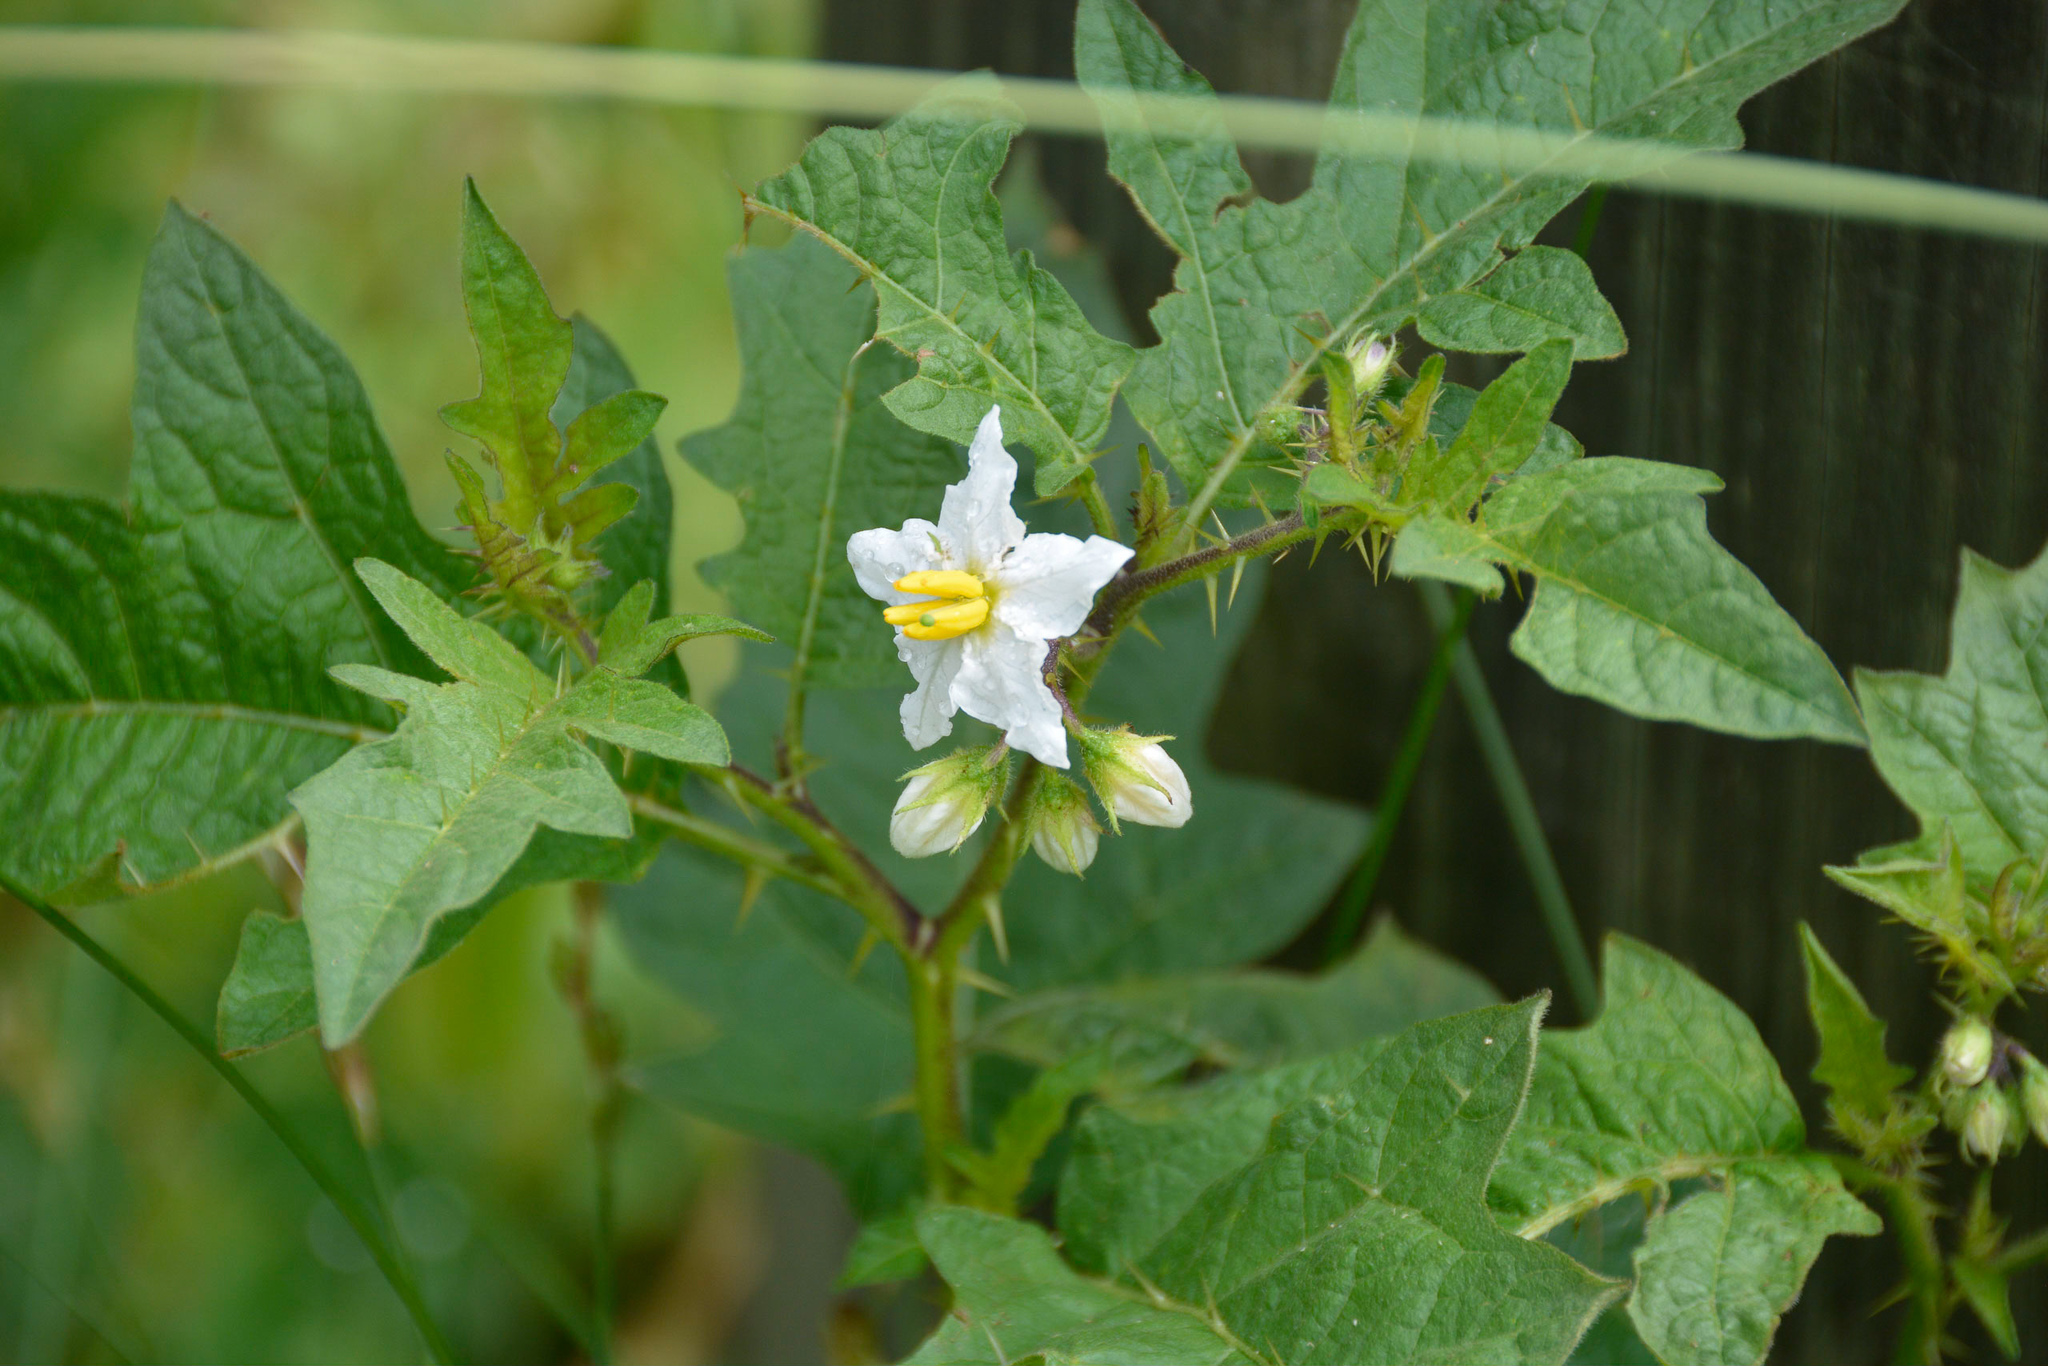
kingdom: Plantae
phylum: Tracheophyta
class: Magnoliopsida
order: Solanales
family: Solanaceae
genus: Solanum
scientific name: Solanum carolinense
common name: Horse-nettle
